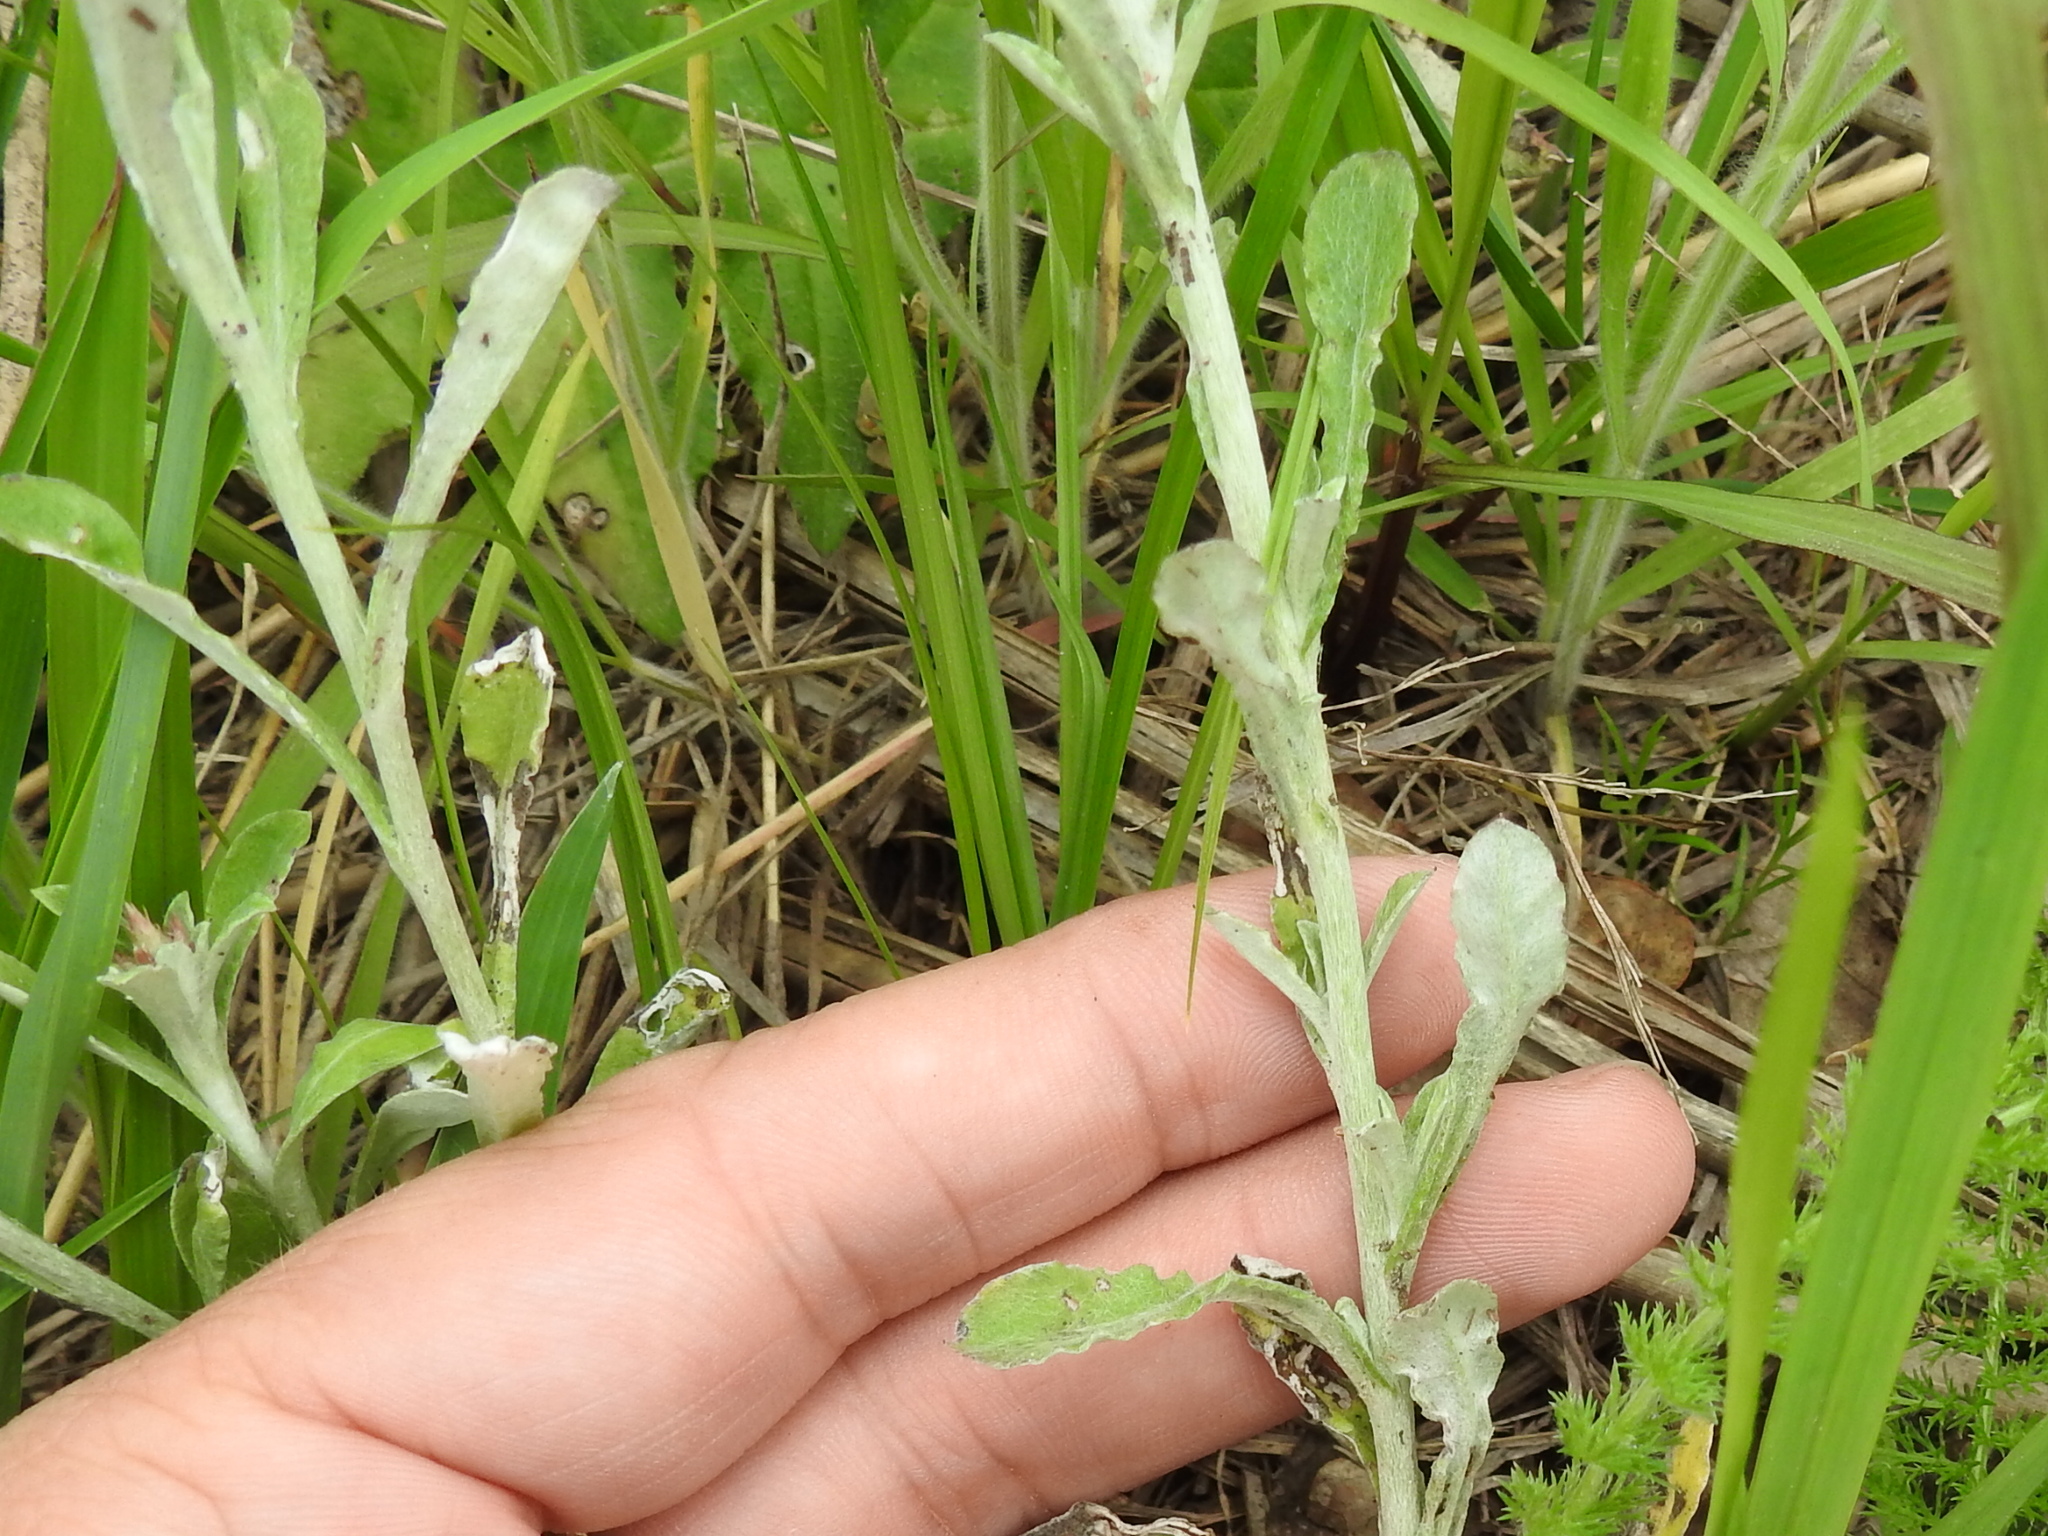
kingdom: Plantae
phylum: Tracheophyta
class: Magnoliopsida
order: Asterales
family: Asteraceae
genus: Gamochaeta
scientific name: Gamochaeta pensylvanica
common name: Pennsylvania everlasting
